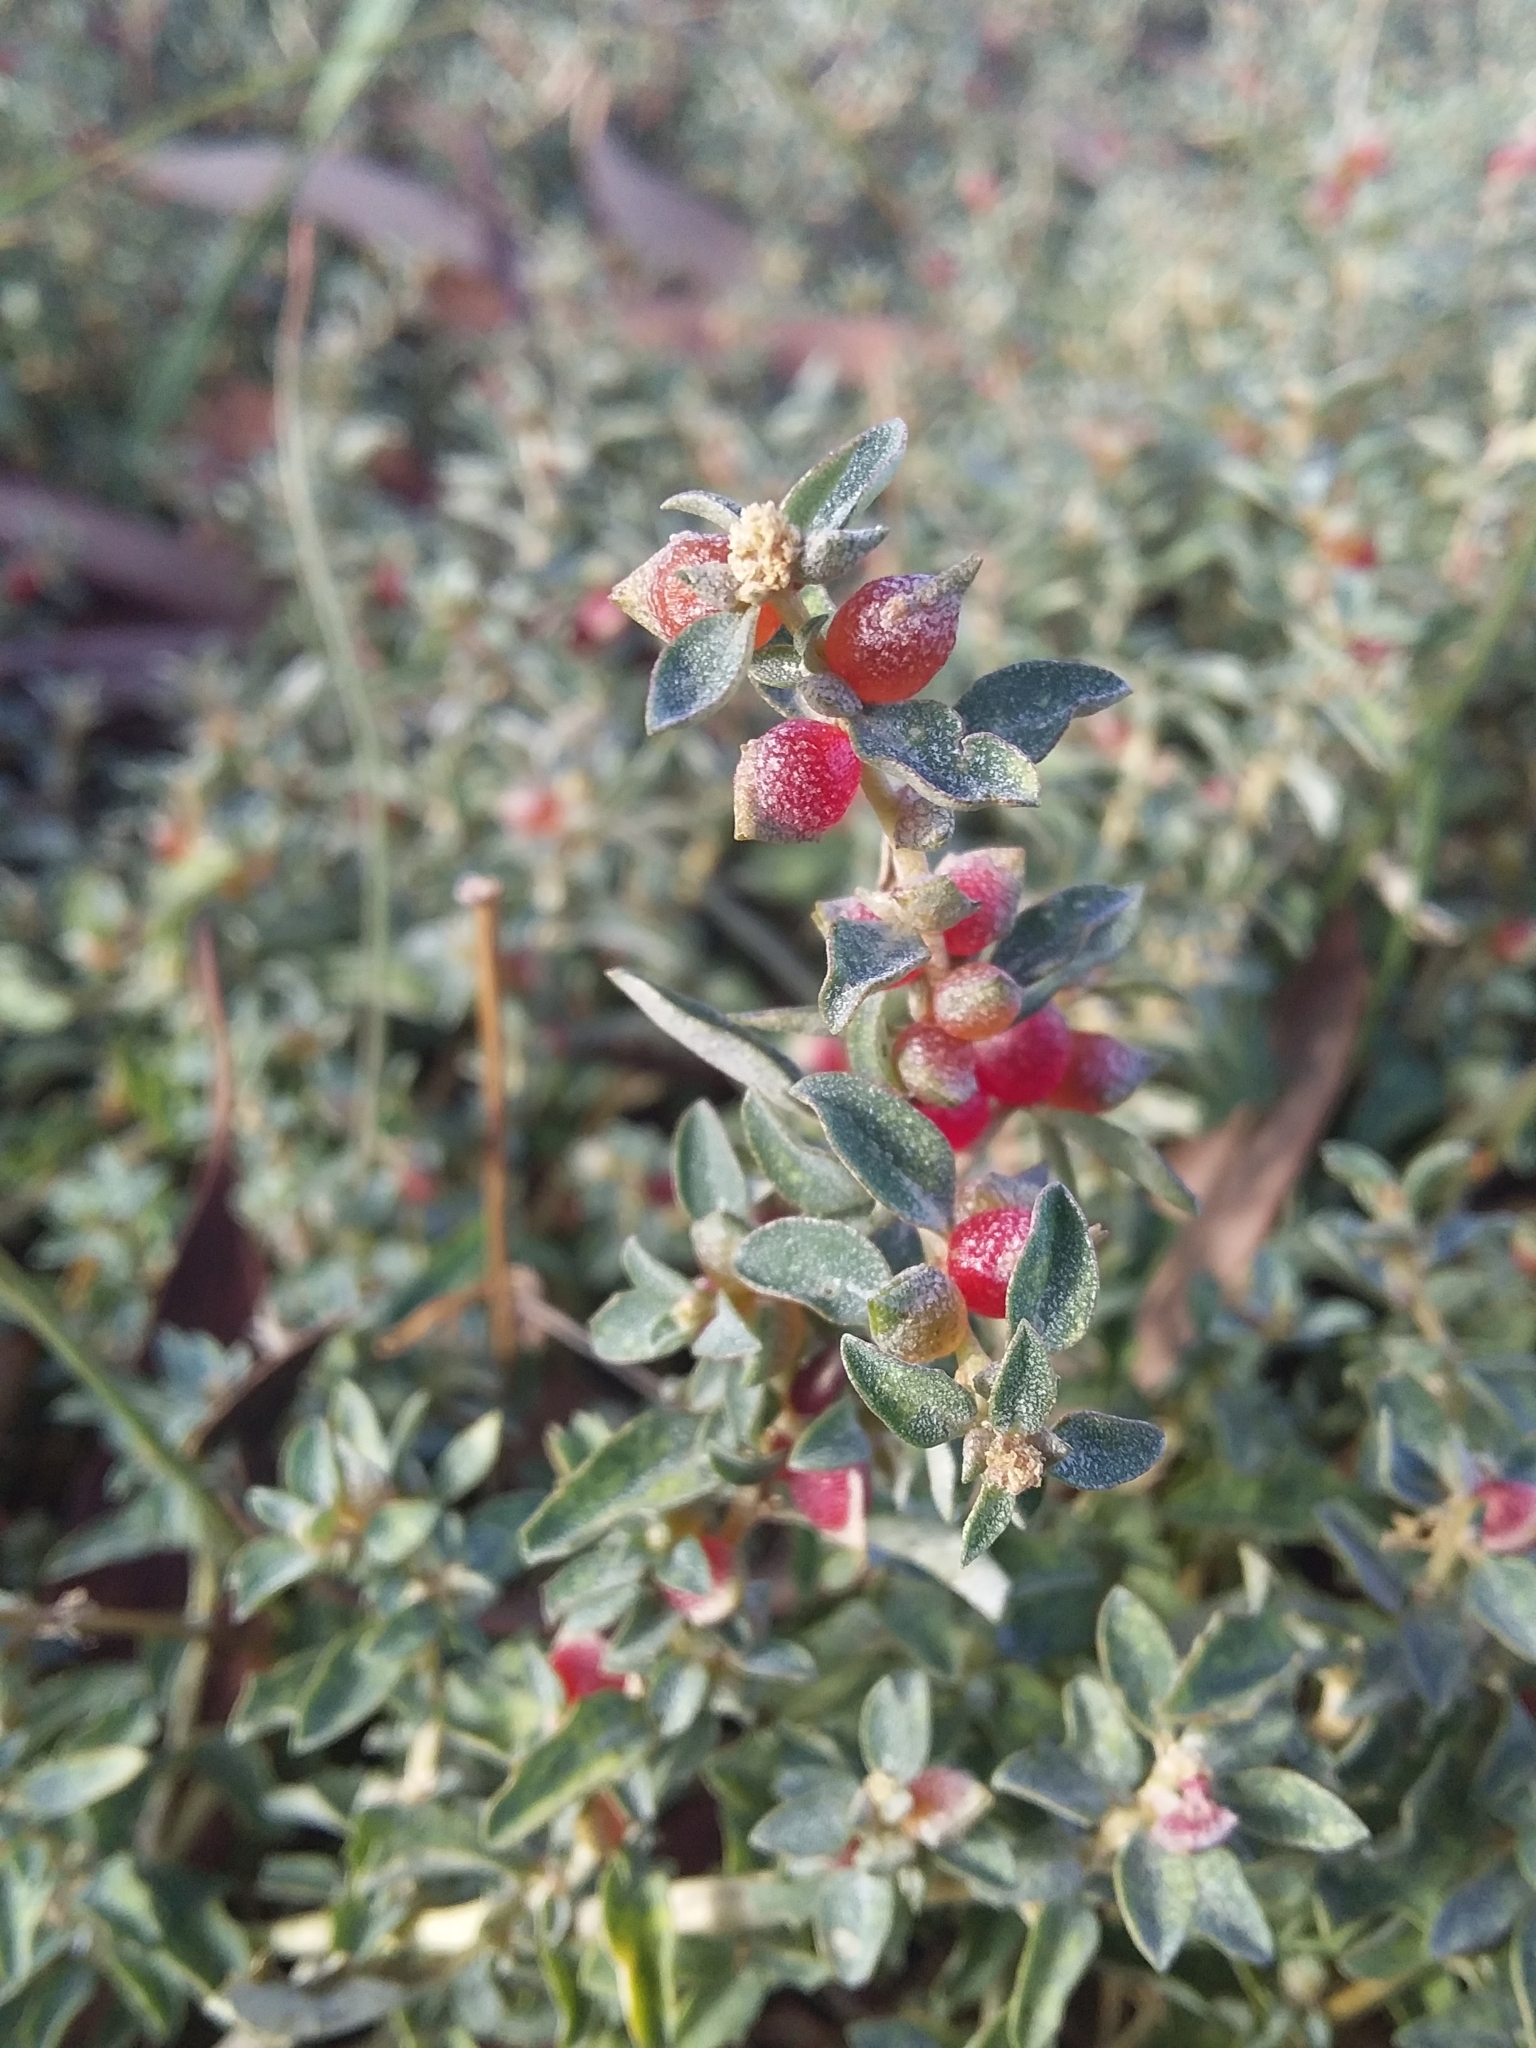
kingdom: Plantae
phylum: Tracheophyta
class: Magnoliopsida
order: Caryophyllales
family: Amaranthaceae
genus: Atriplex
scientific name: Atriplex semibaccata
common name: Australian saltbush
